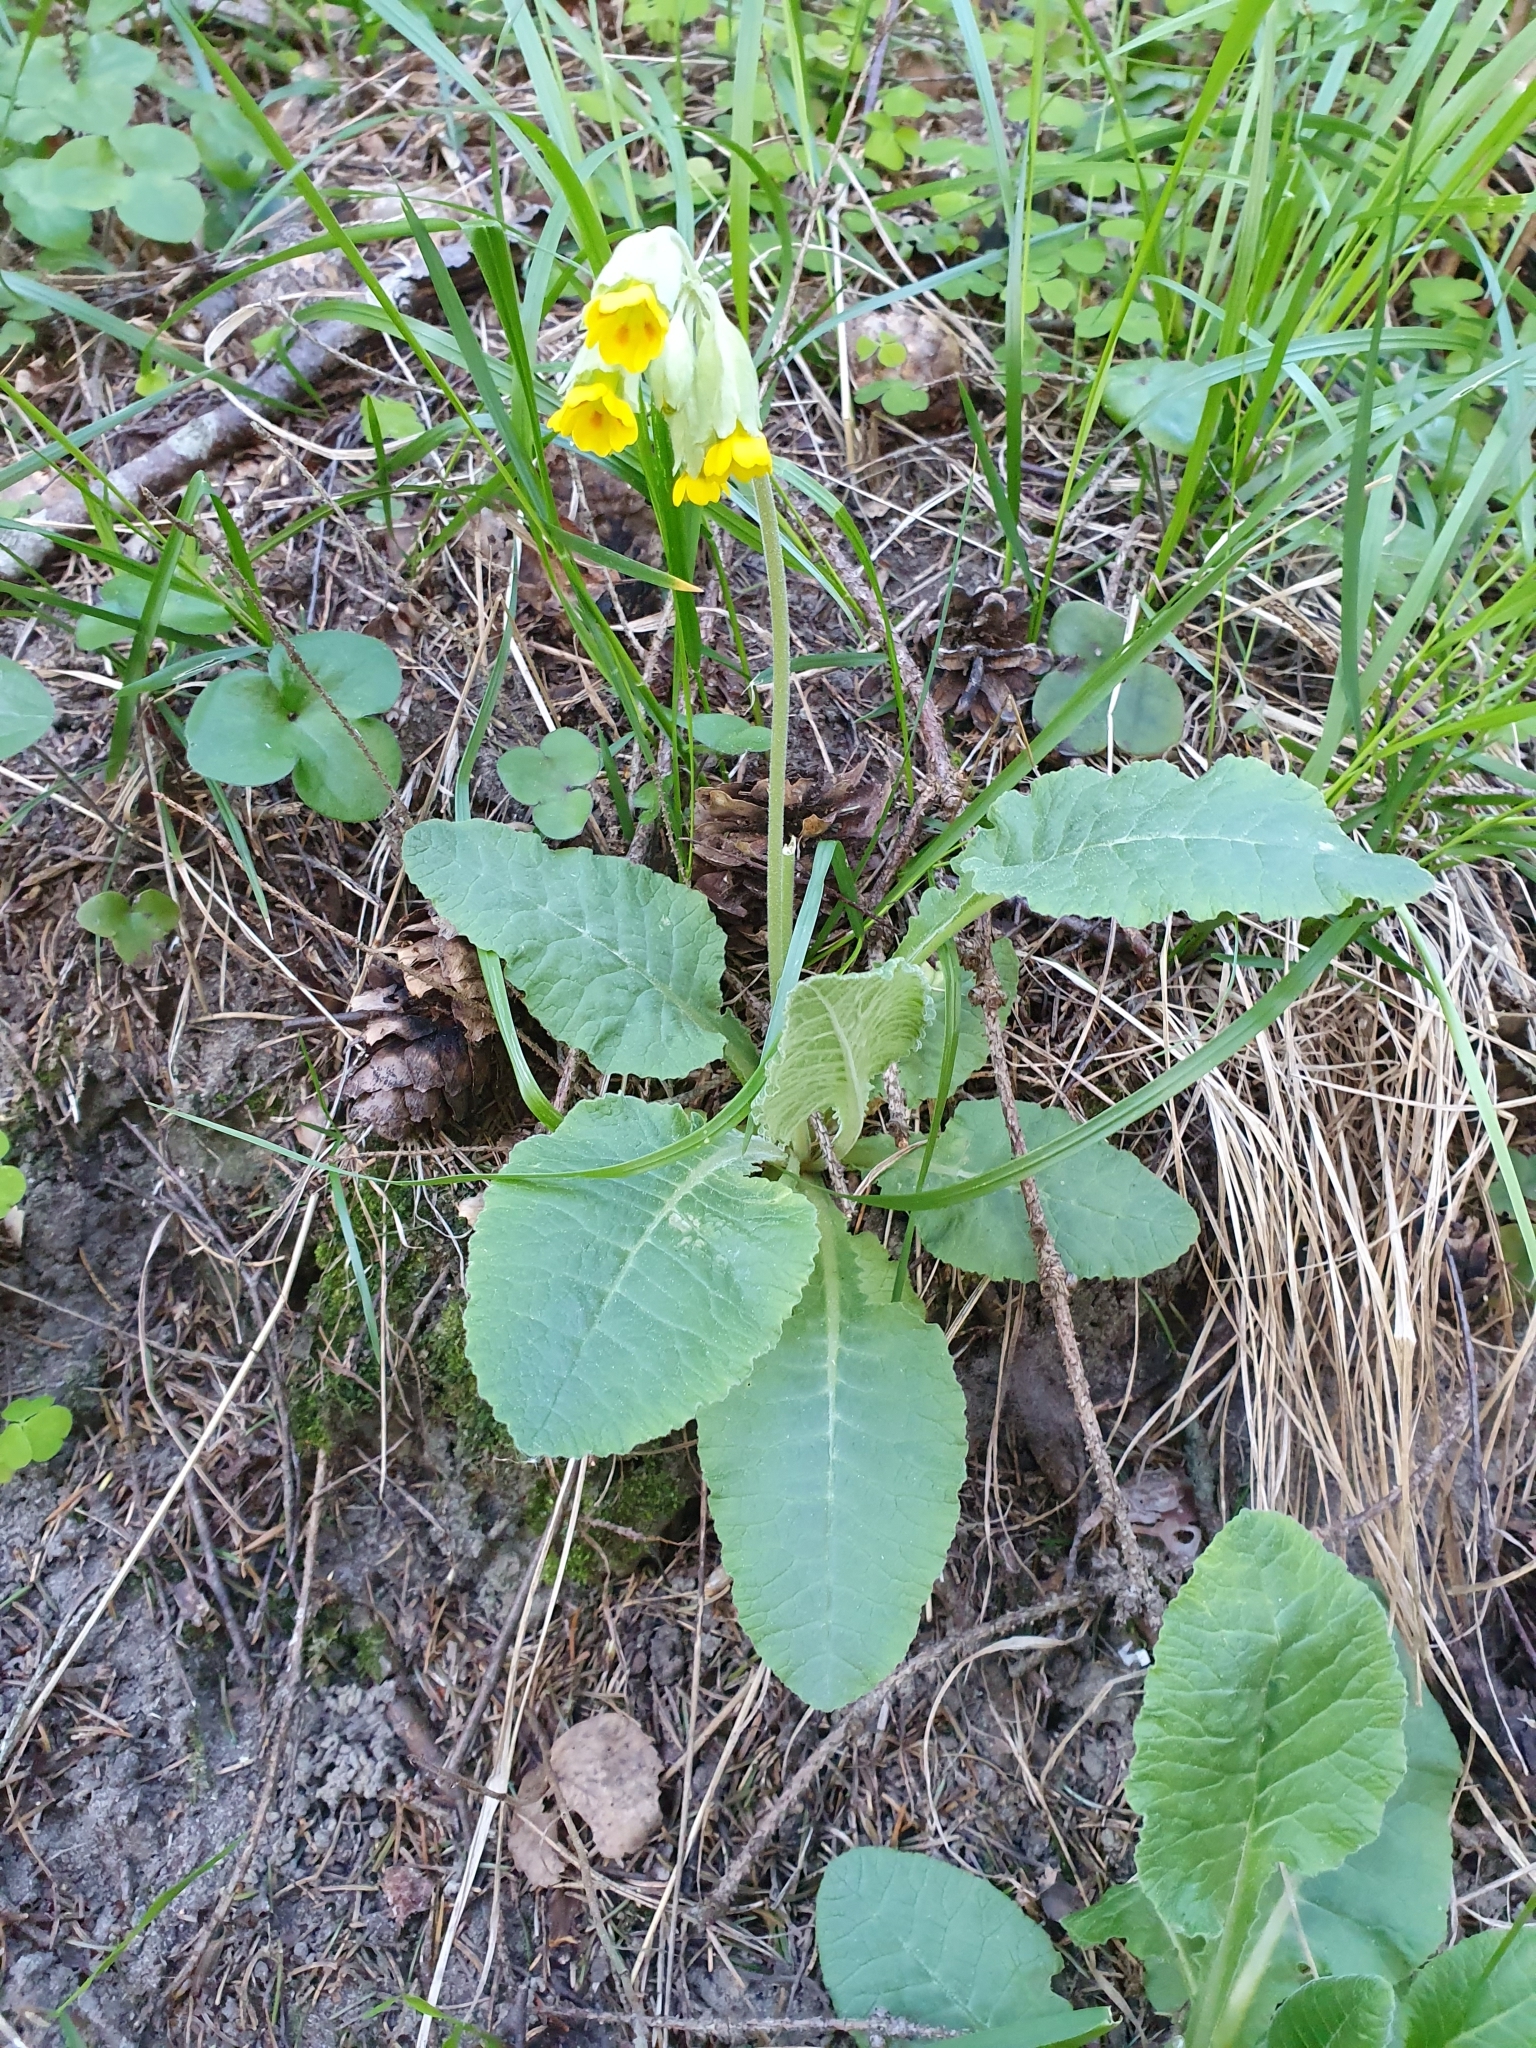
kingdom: Plantae
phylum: Tracheophyta
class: Magnoliopsida
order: Ericales
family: Primulaceae
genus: Primula
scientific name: Primula veris
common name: Cowslip
